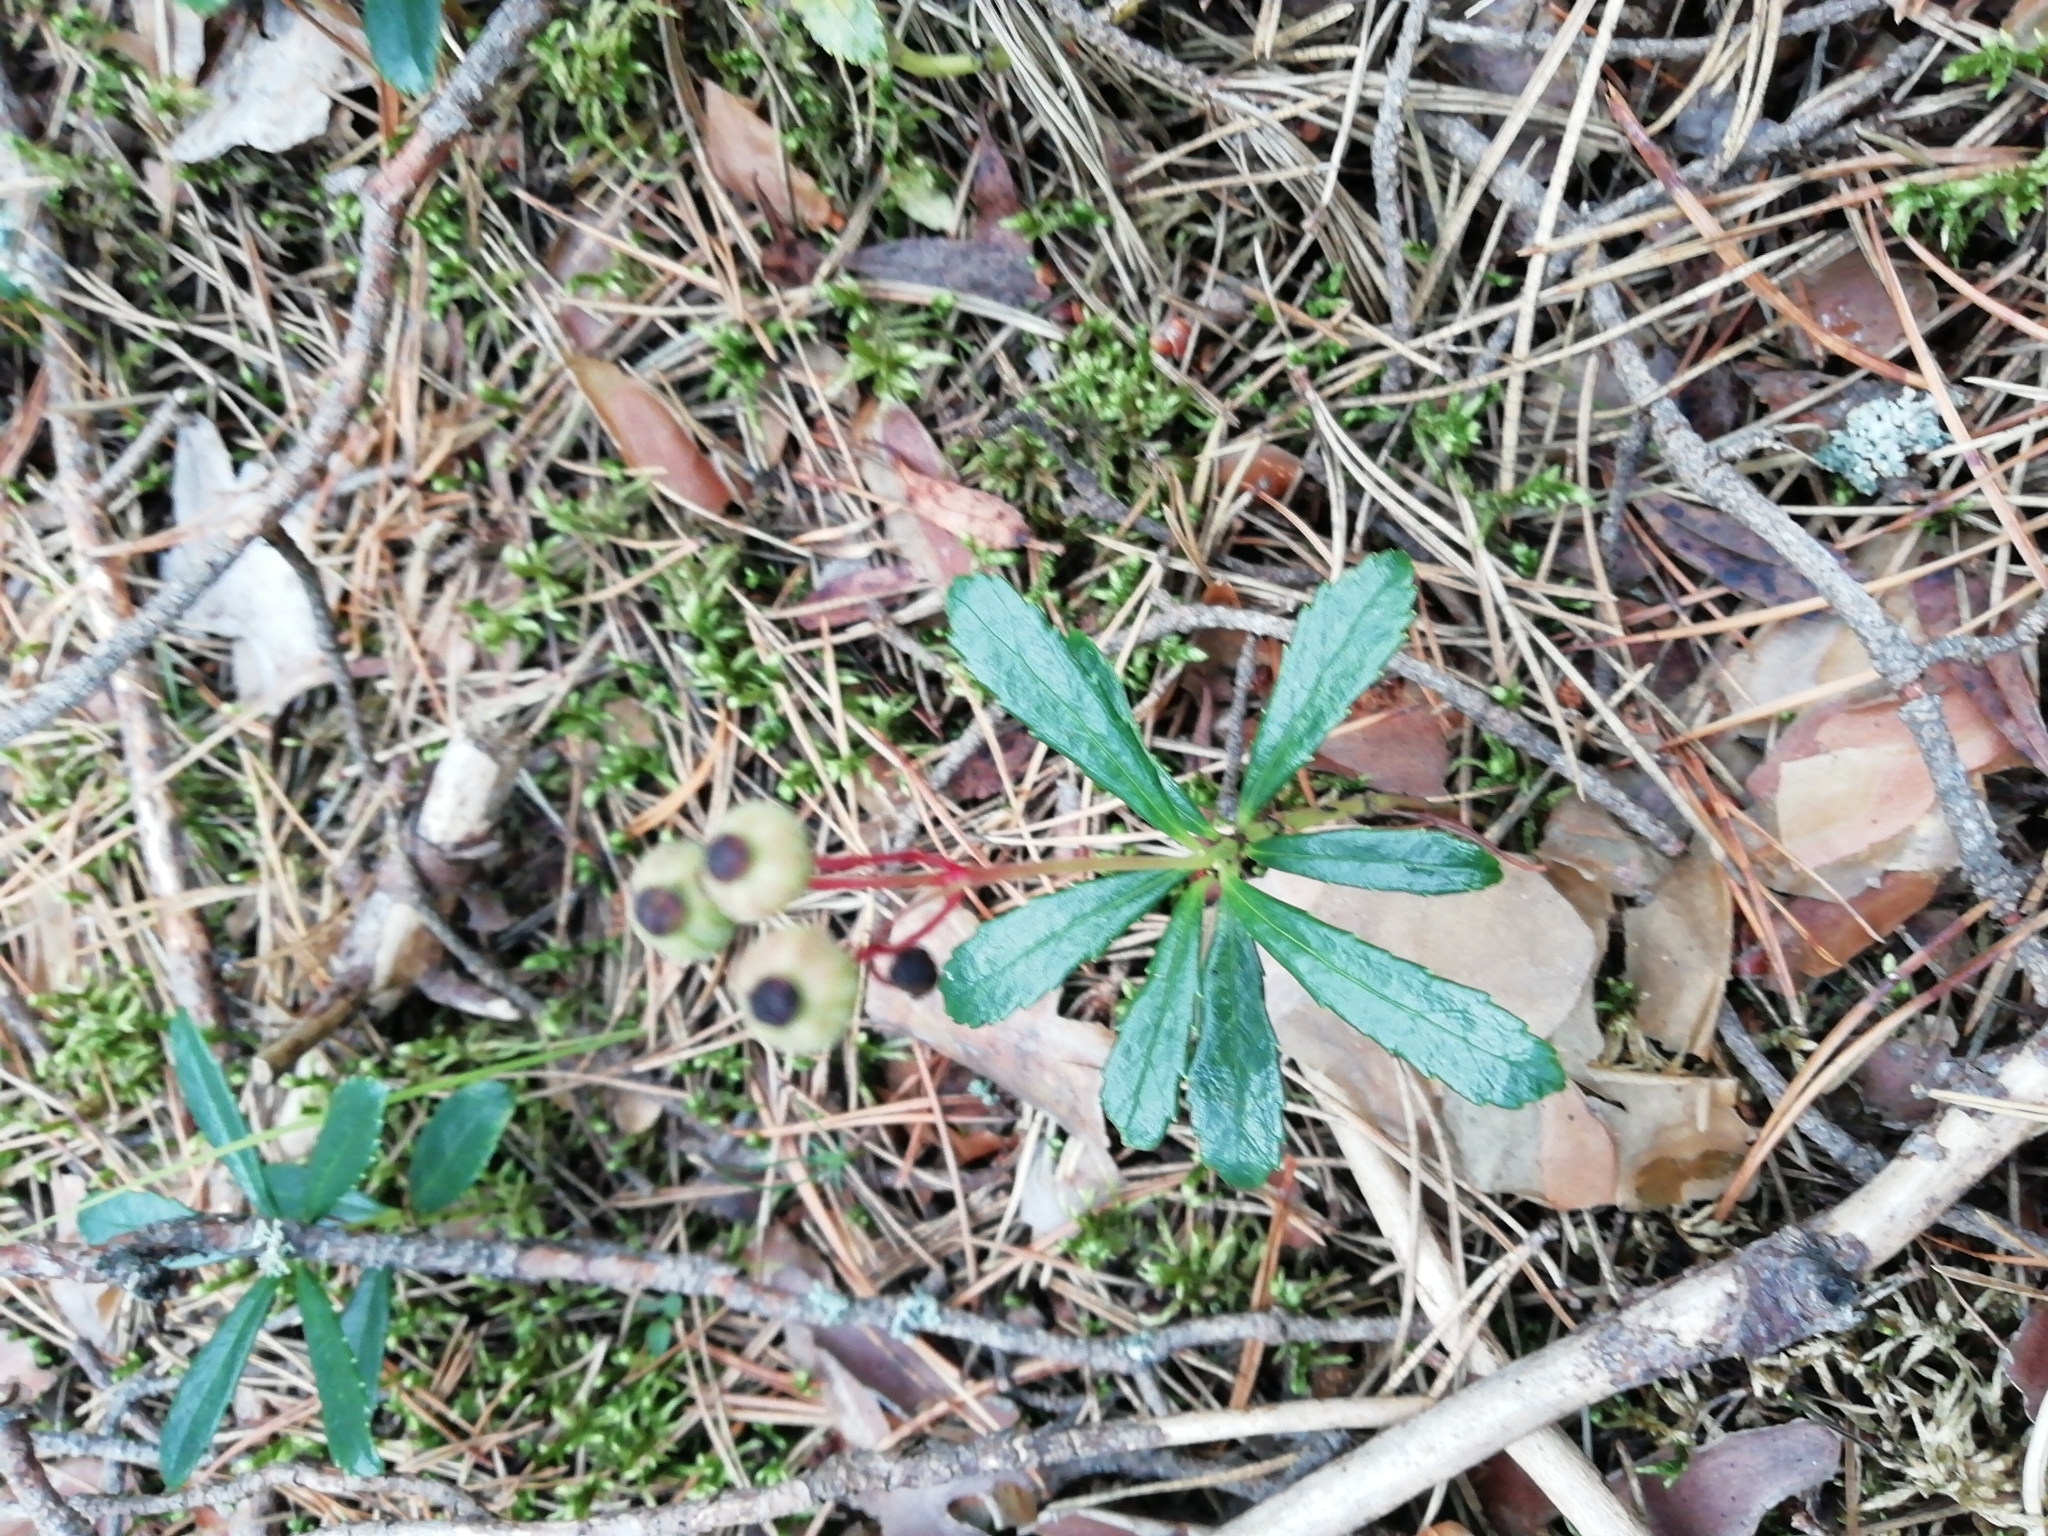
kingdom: Plantae
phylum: Tracheophyta
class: Magnoliopsida
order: Ericales
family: Ericaceae
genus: Chimaphila
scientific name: Chimaphila umbellata
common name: Pipsissewa
